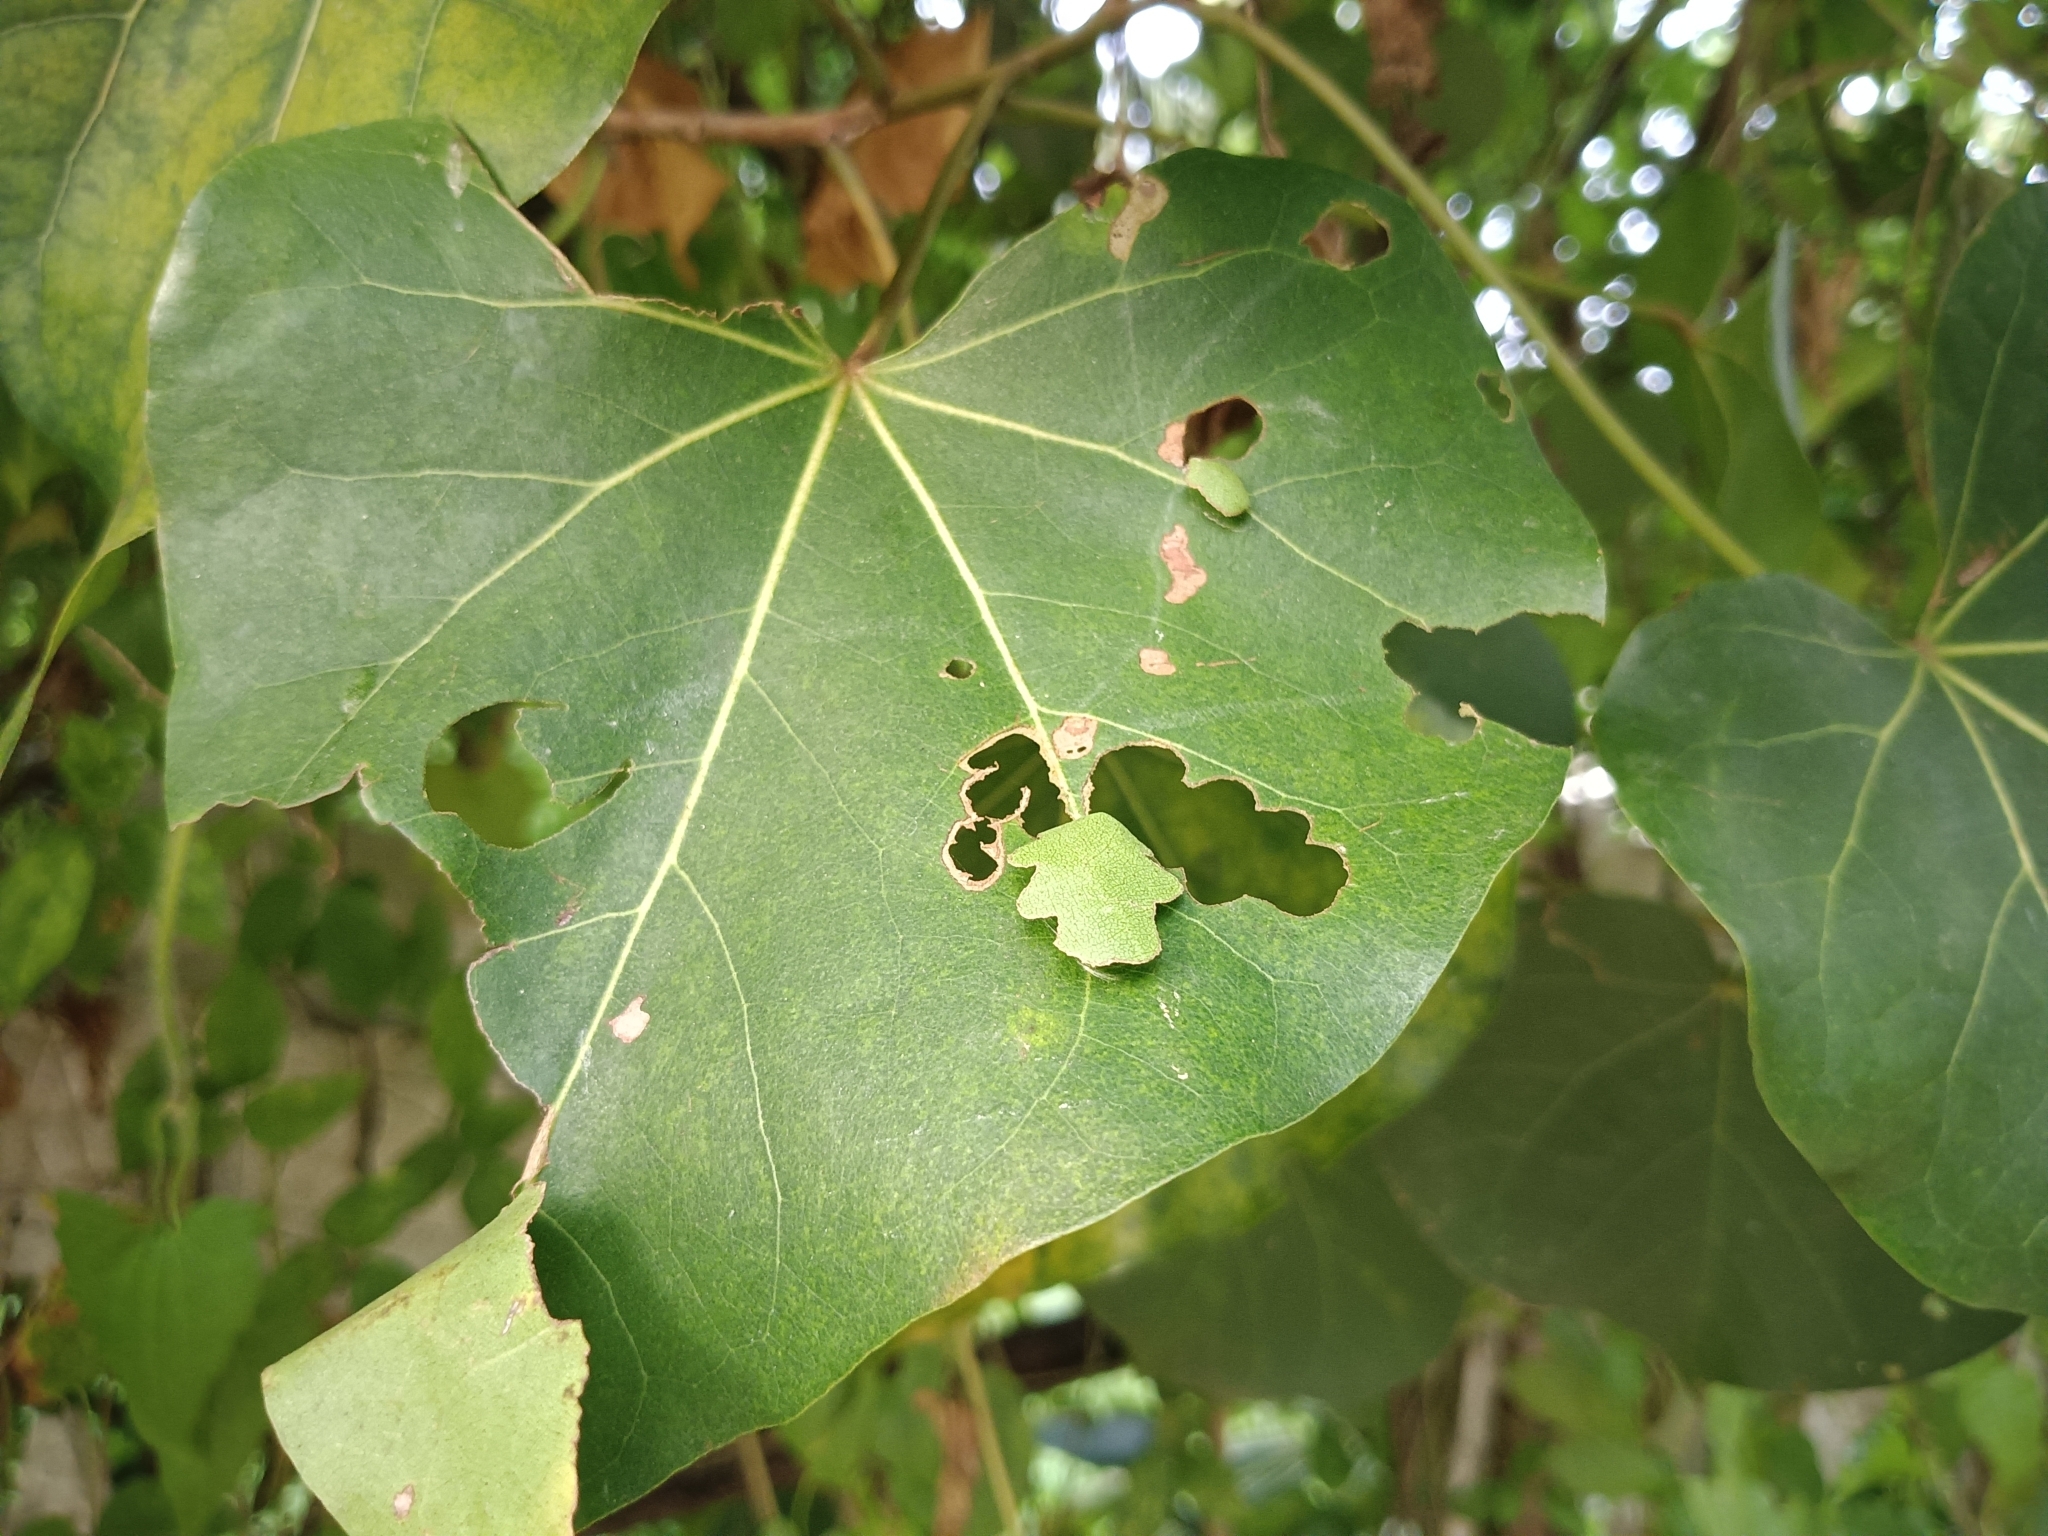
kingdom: Animalia
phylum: Arthropoda
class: Insecta
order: Lepidoptera
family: Hesperiidae
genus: Coladenia
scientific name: Coladenia
